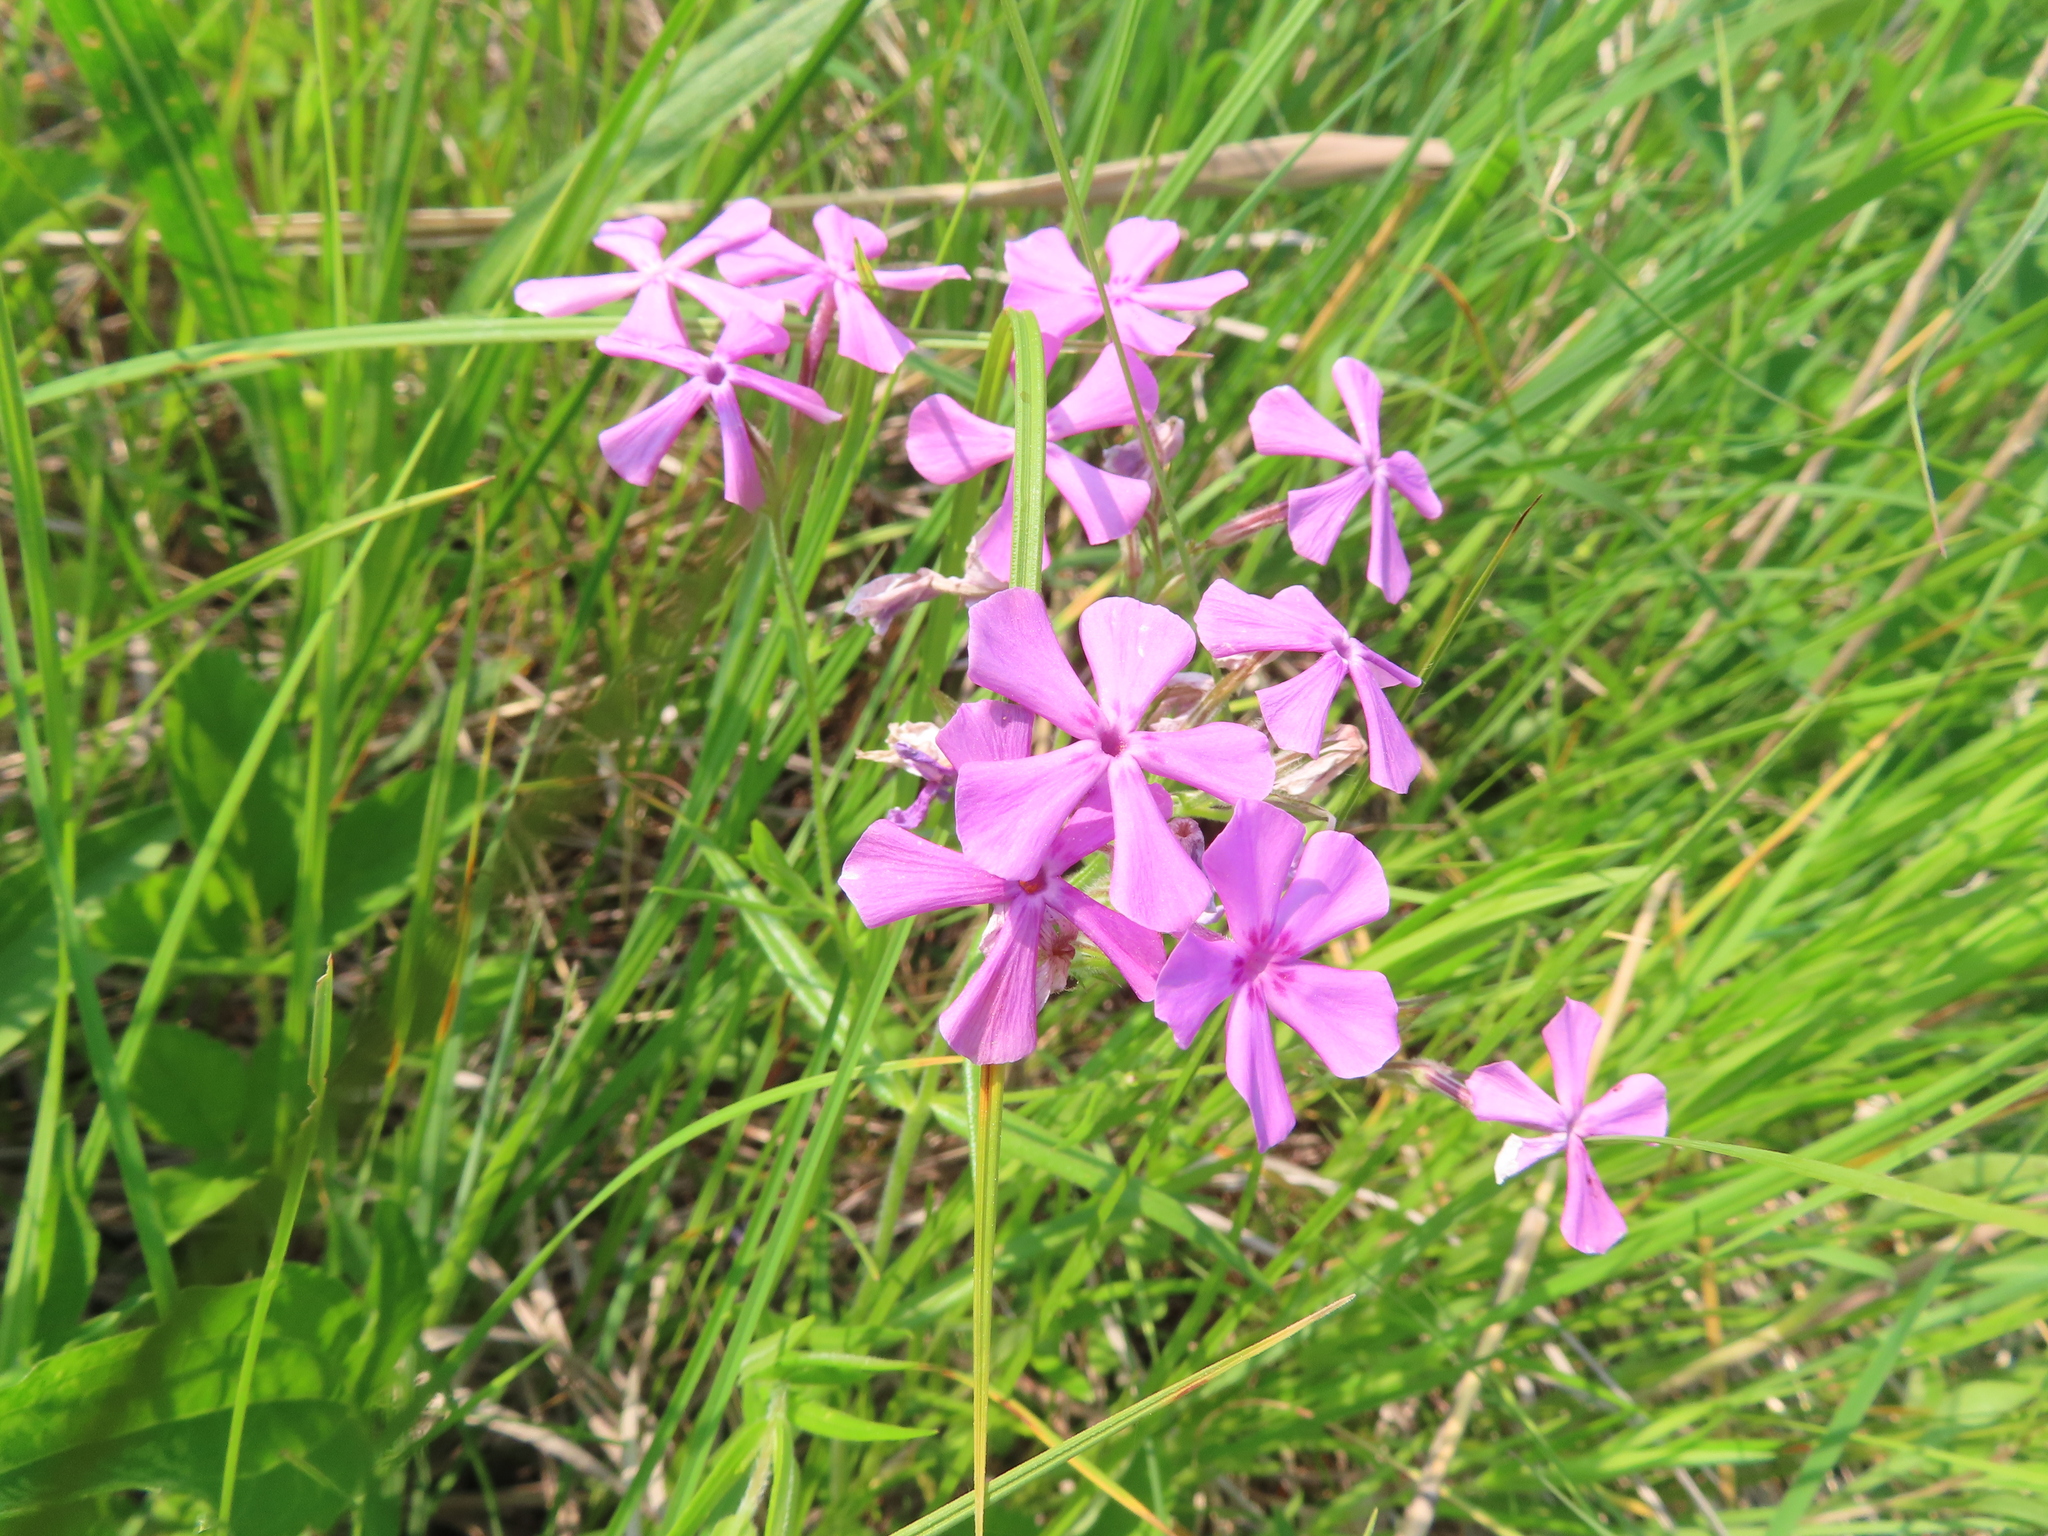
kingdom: Plantae
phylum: Tracheophyta
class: Magnoliopsida
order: Ericales
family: Polemoniaceae
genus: Phlox
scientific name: Phlox pilosa
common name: Prairie phlox
